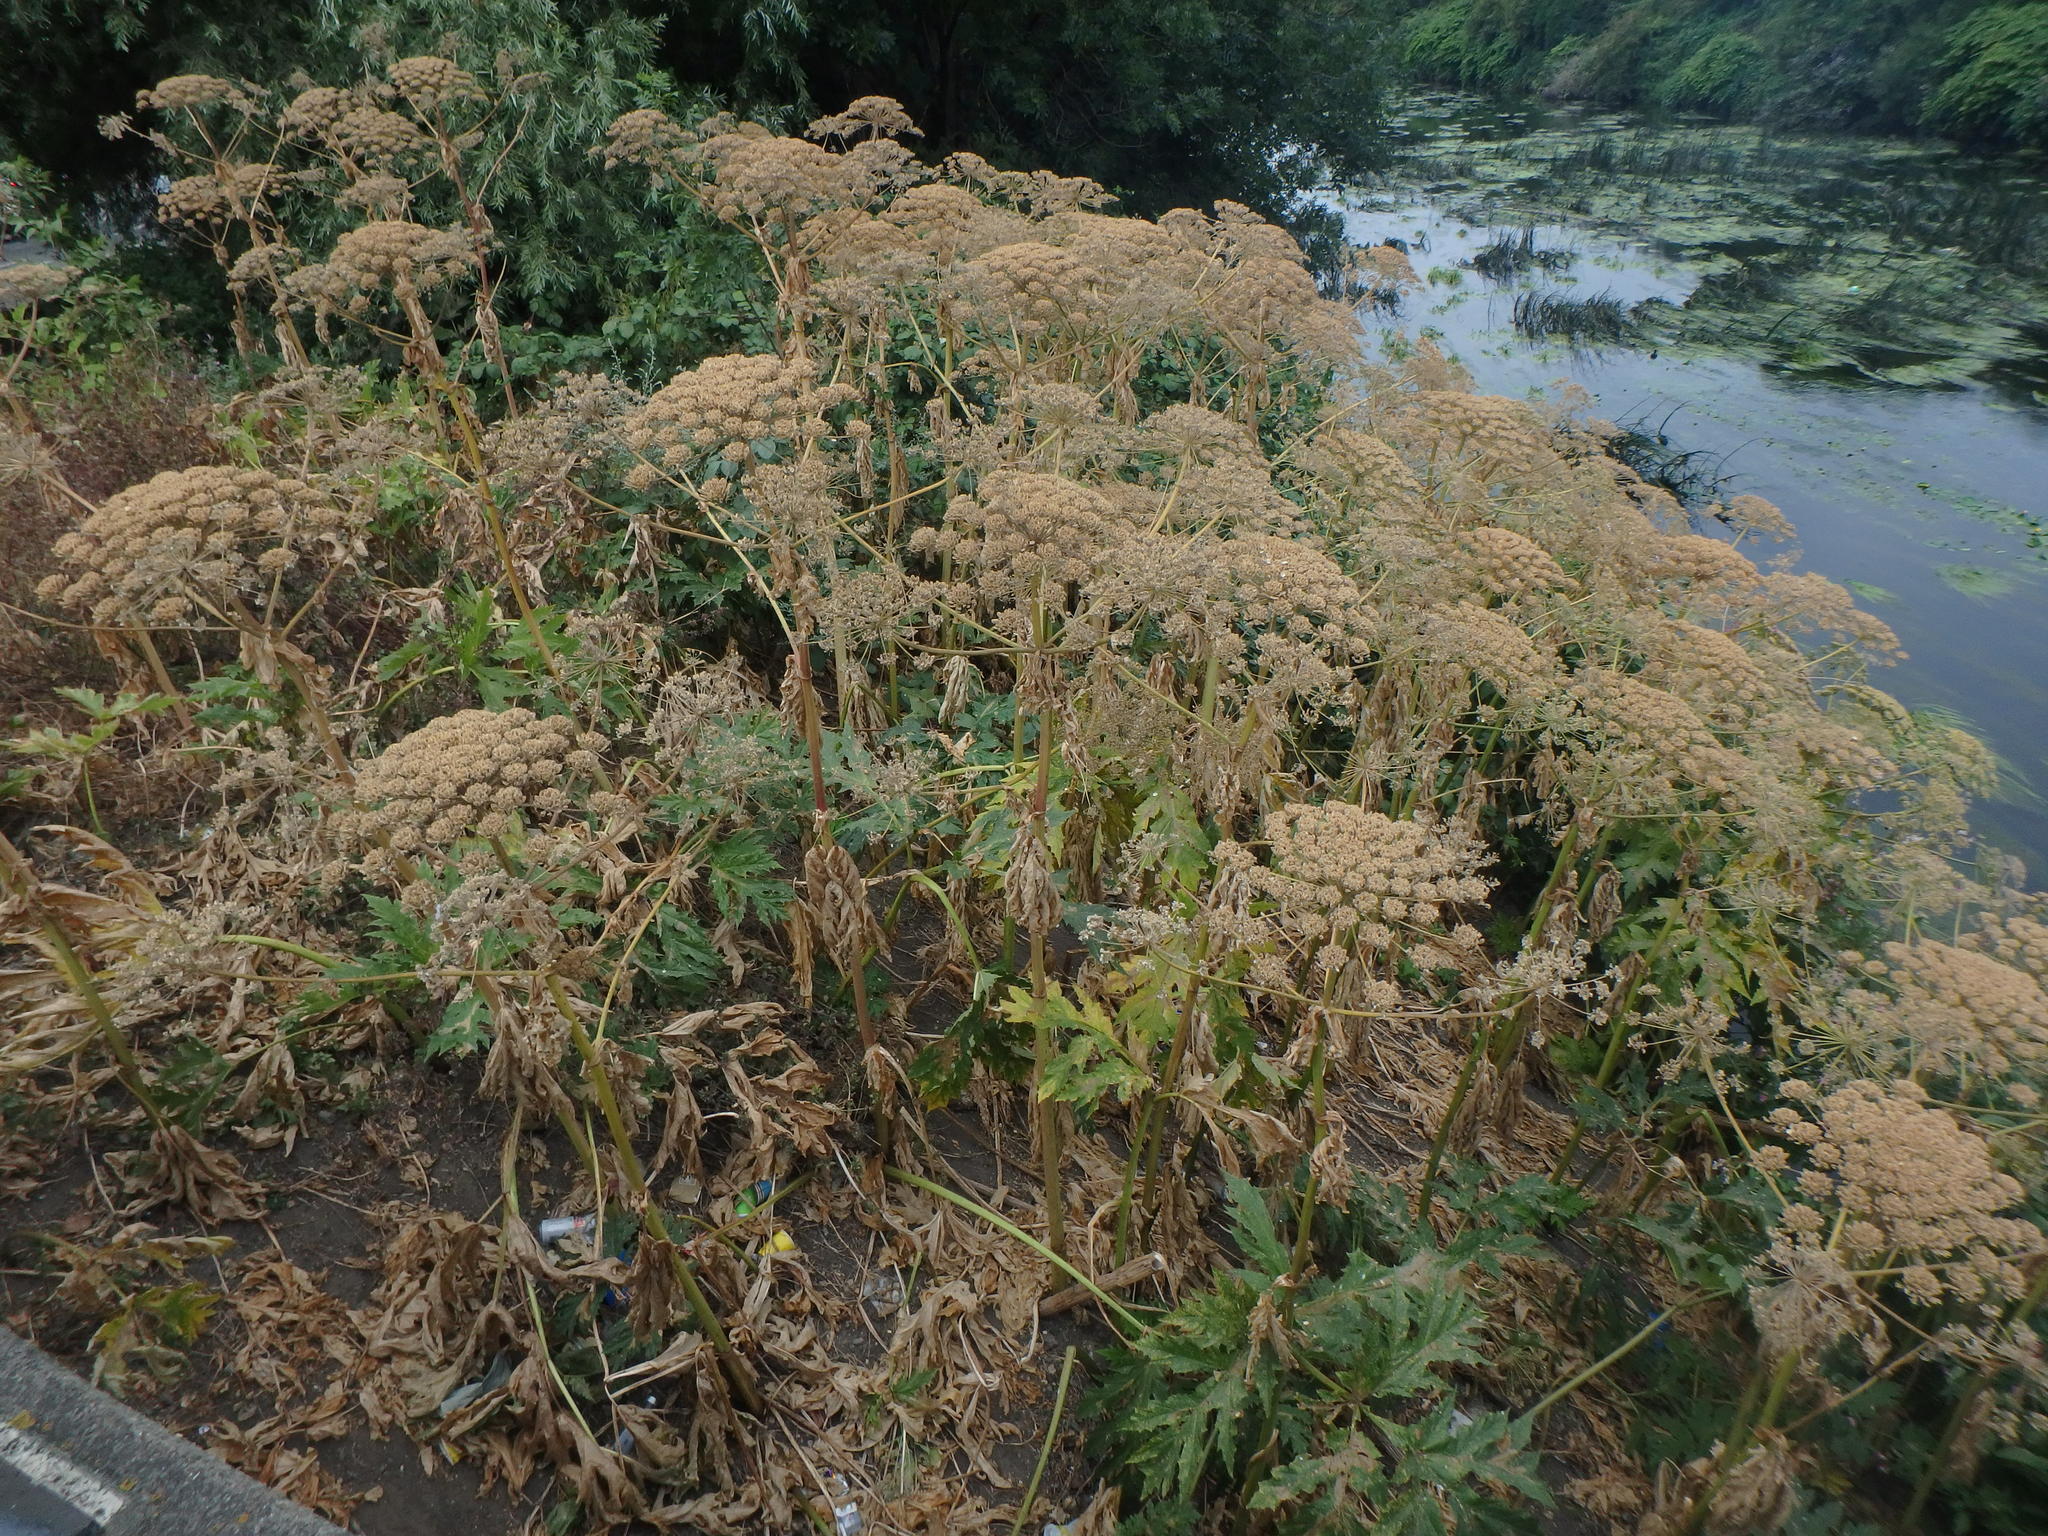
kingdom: Plantae
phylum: Tracheophyta
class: Magnoliopsida
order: Apiales
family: Apiaceae
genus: Heracleum
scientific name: Heracleum mantegazzianum
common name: Giant hogweed
